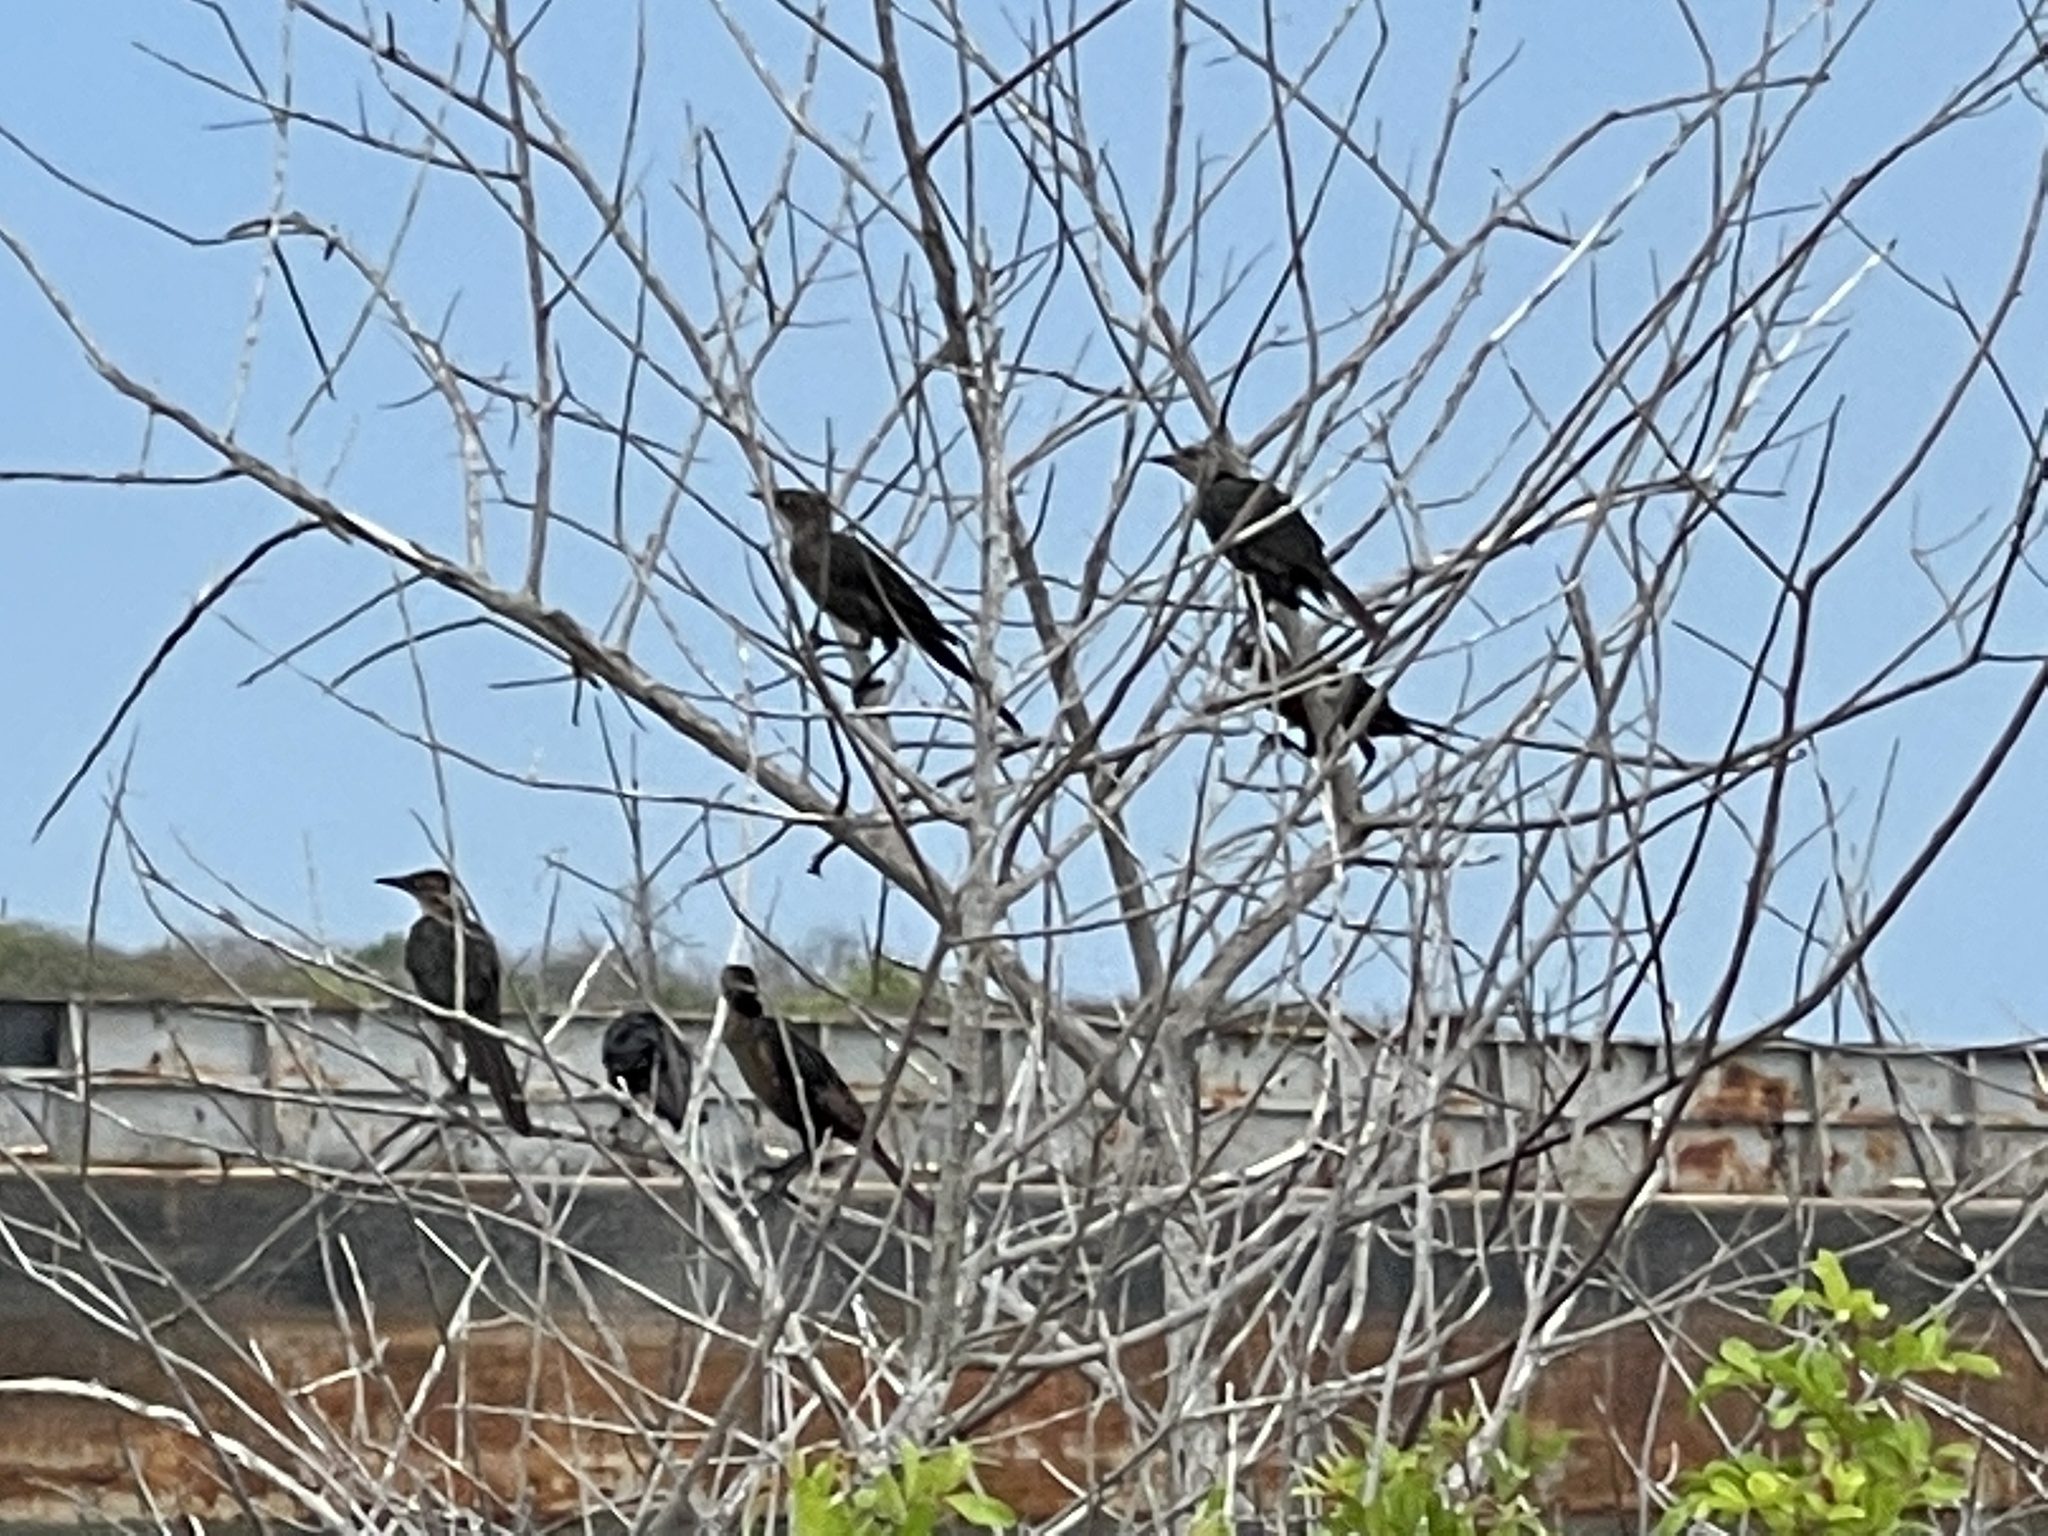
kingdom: Animalia
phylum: Chordata
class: Aves
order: Passeriformes
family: Icteridae
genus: Quiscalus
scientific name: Quiscalus mexicanus
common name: Great-tailed grackle
